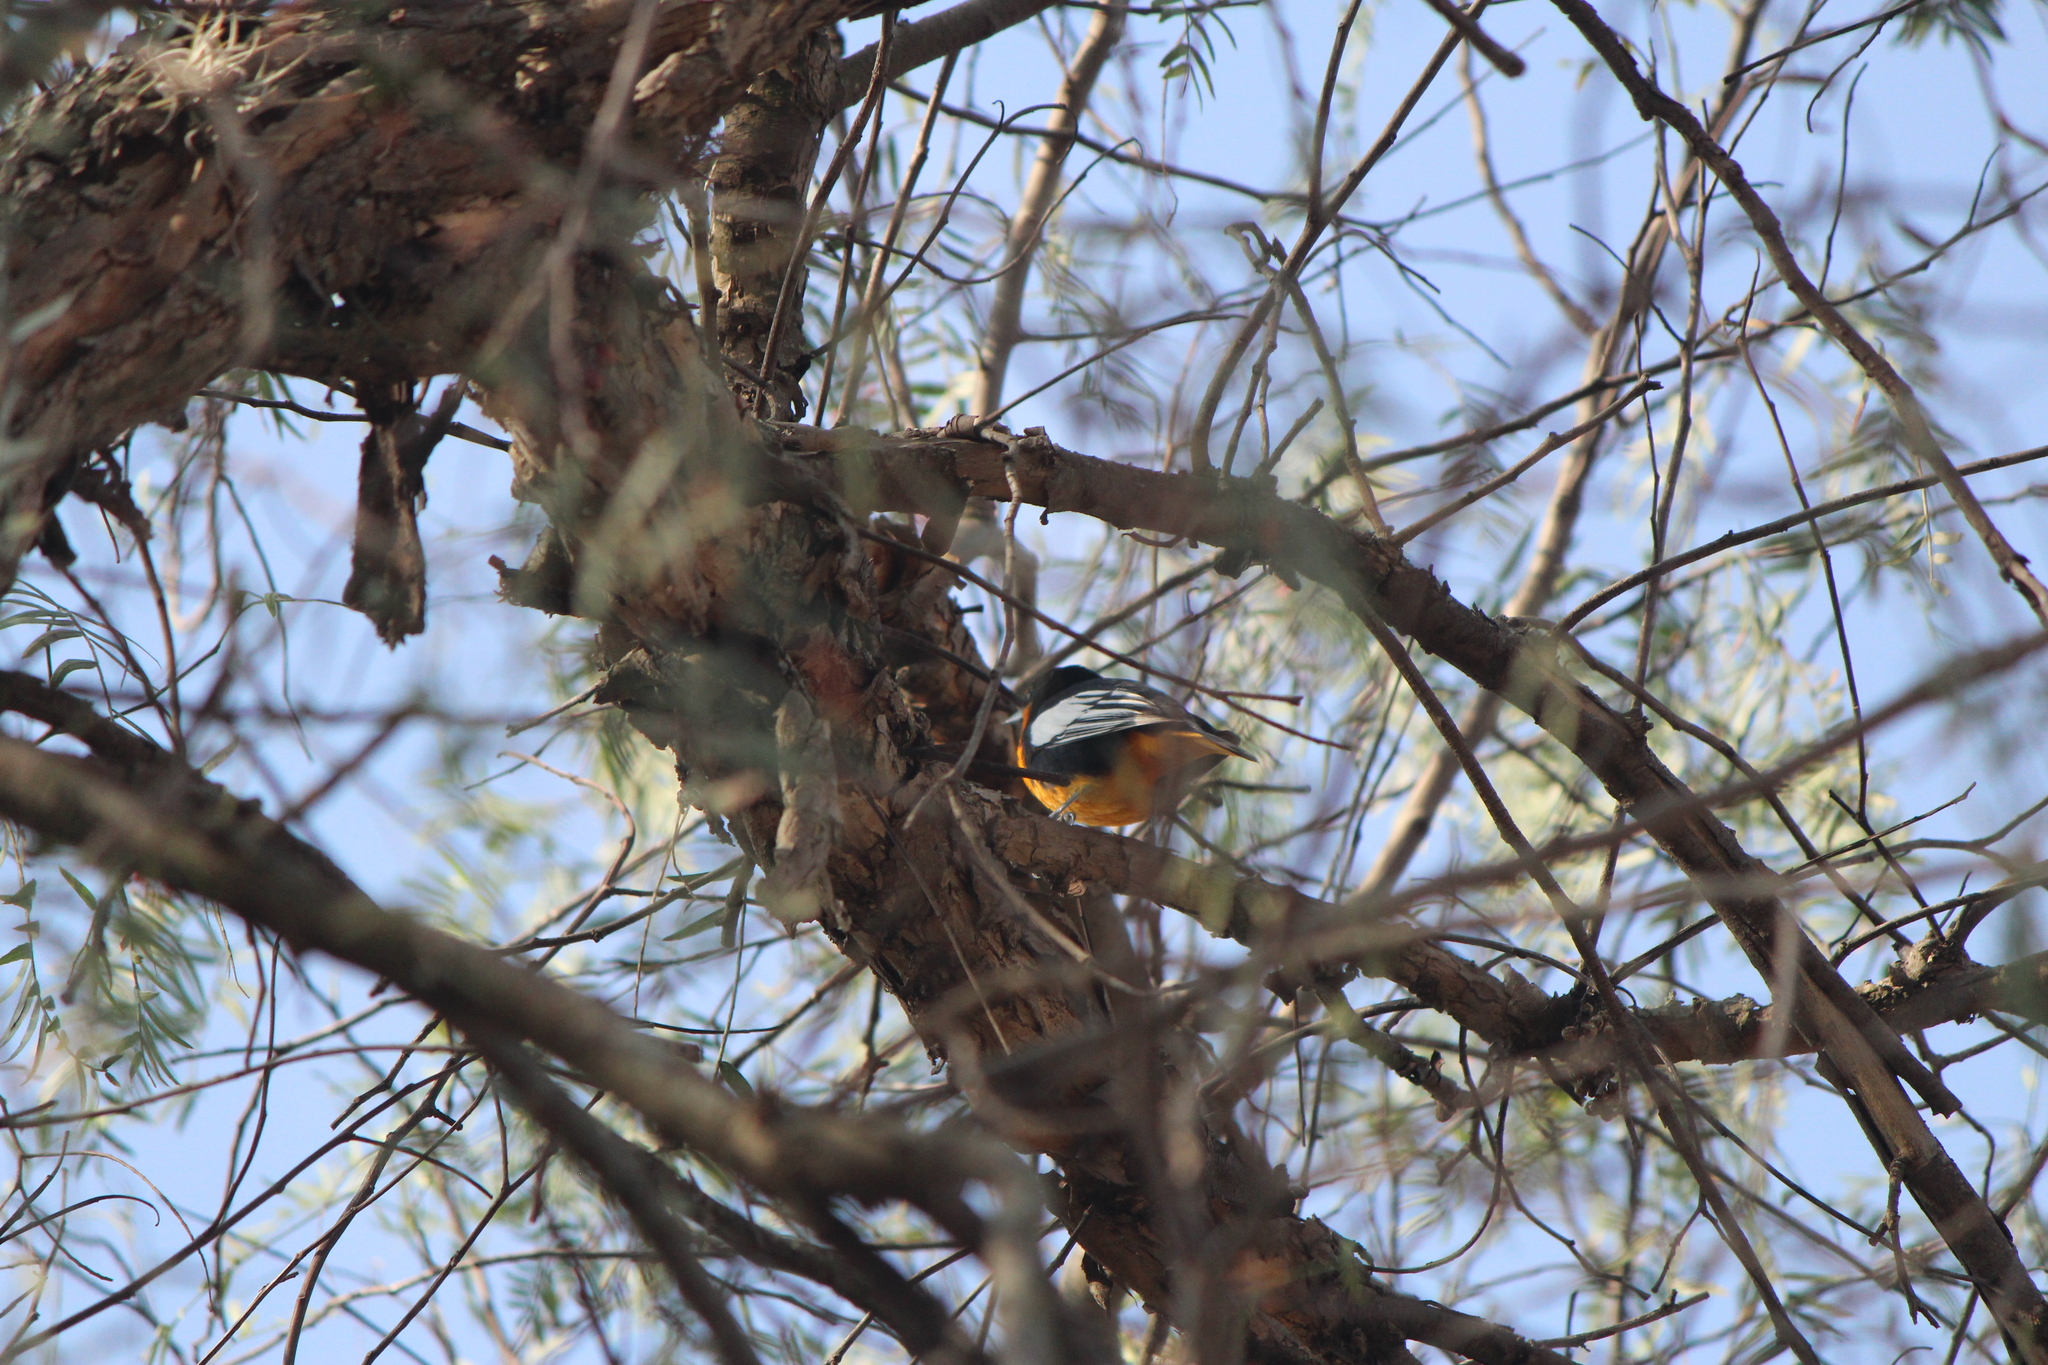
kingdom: Animalia
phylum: Chordata
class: Aves
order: Passeriformes
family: Icteridae
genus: Icterus
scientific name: Icterus abeillei
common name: Black-backed oriole
